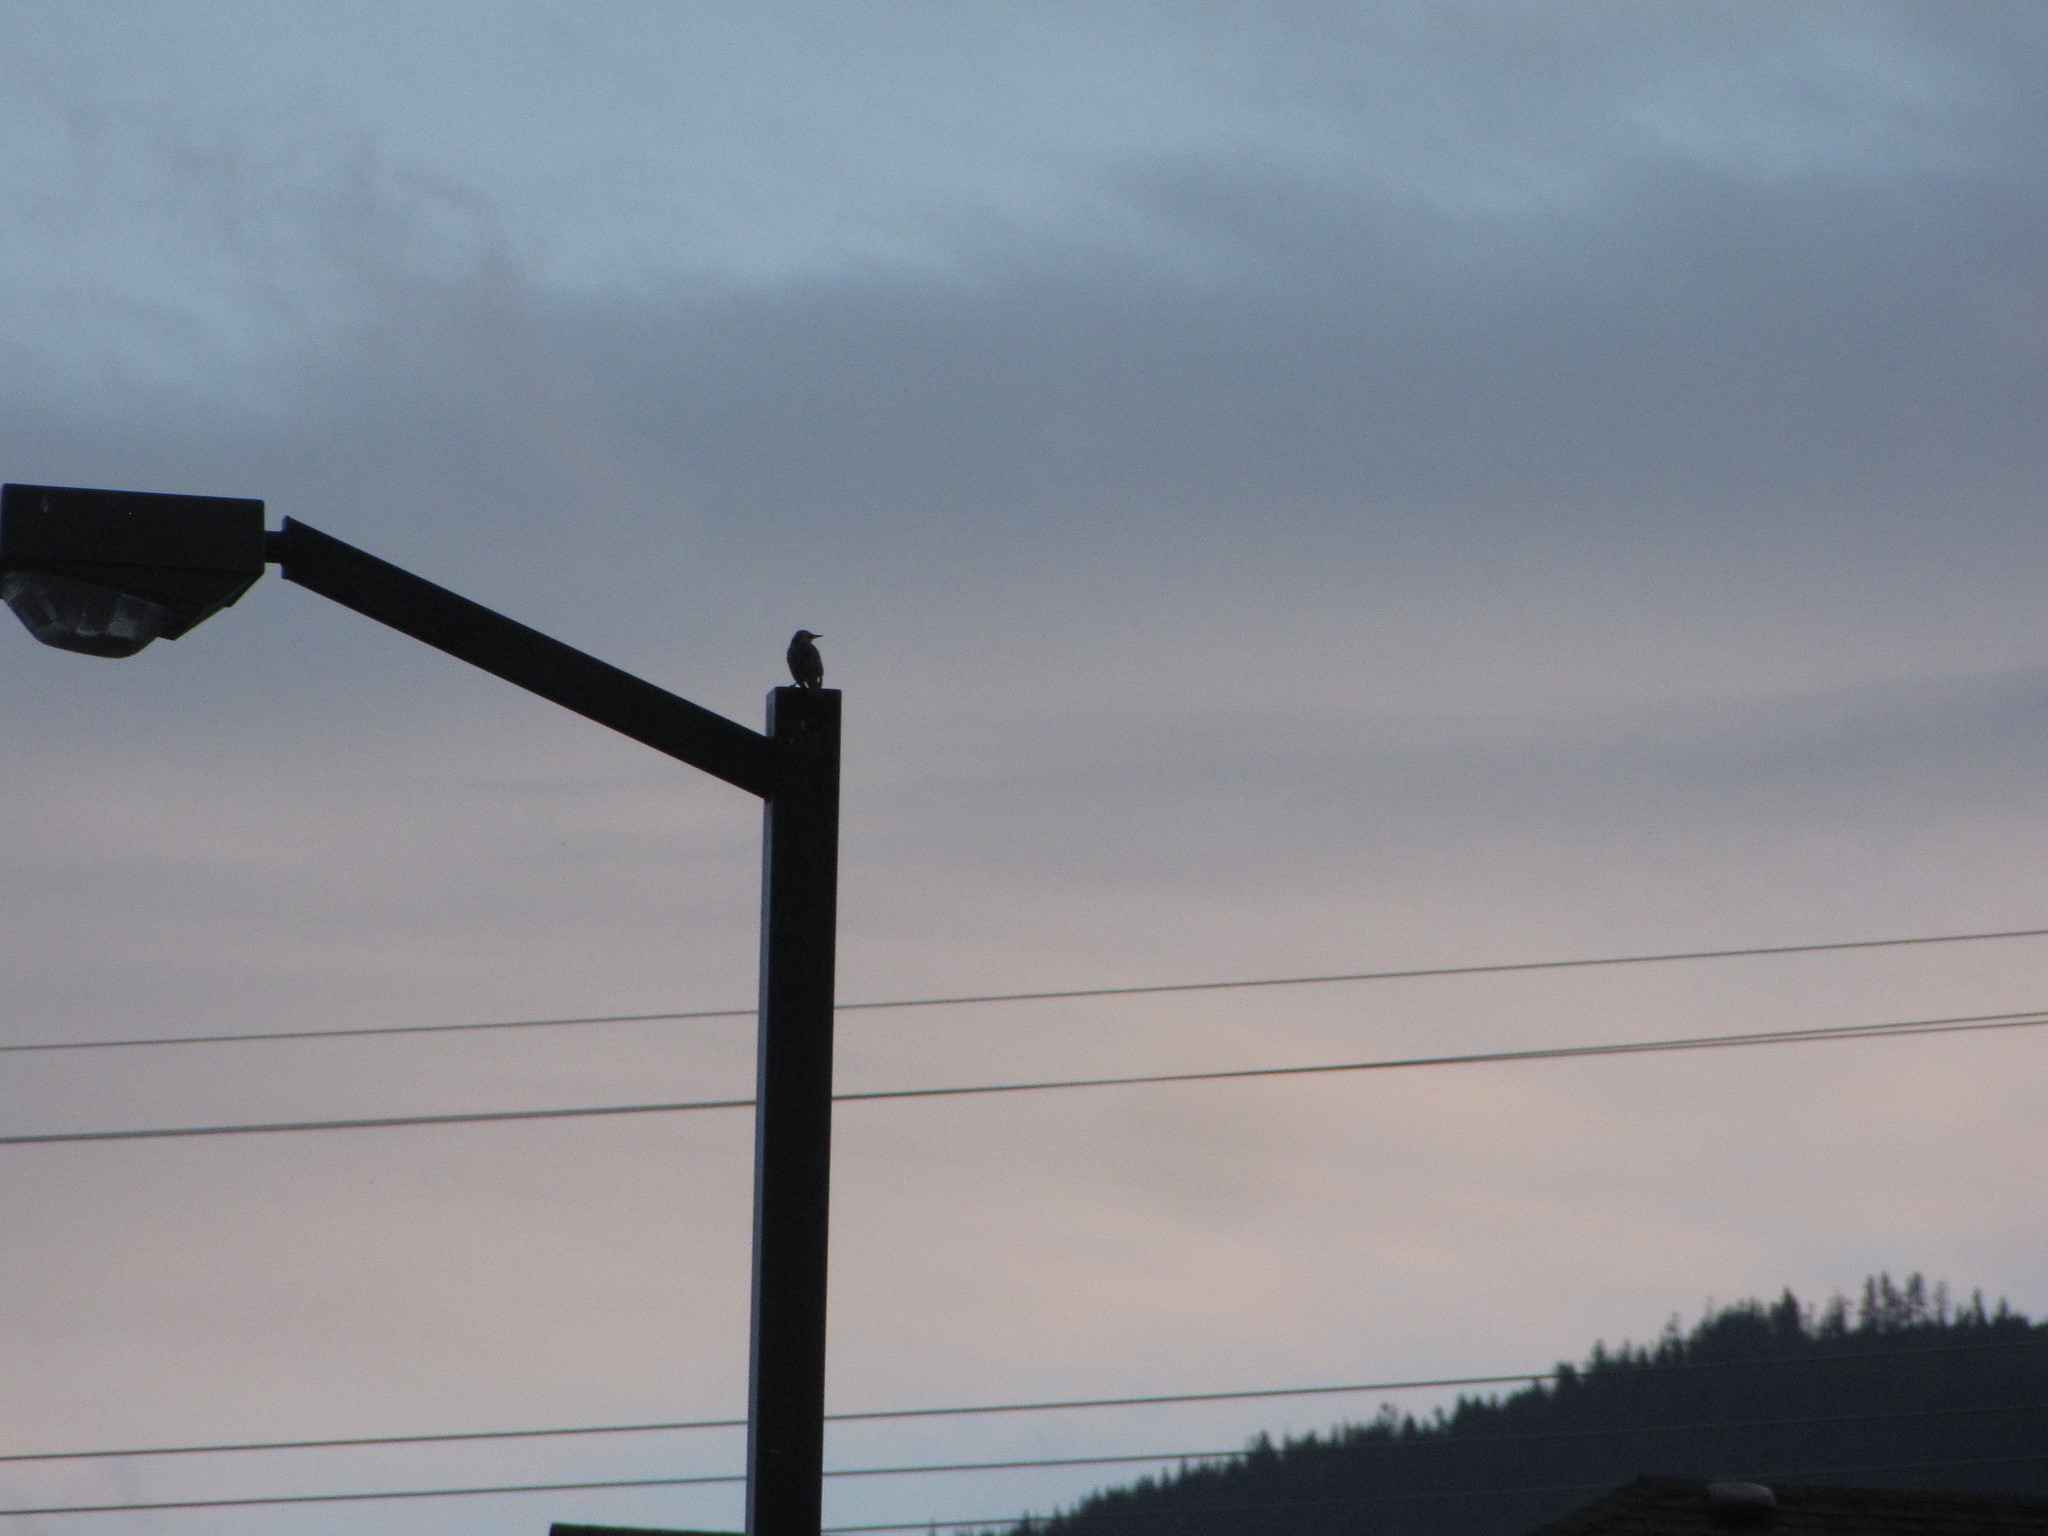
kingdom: Animalia
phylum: Chordata
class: Aves
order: Passeriformes
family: Sturnidae
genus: Sturnus
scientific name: Sturnus vulgaris
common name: Common starling
